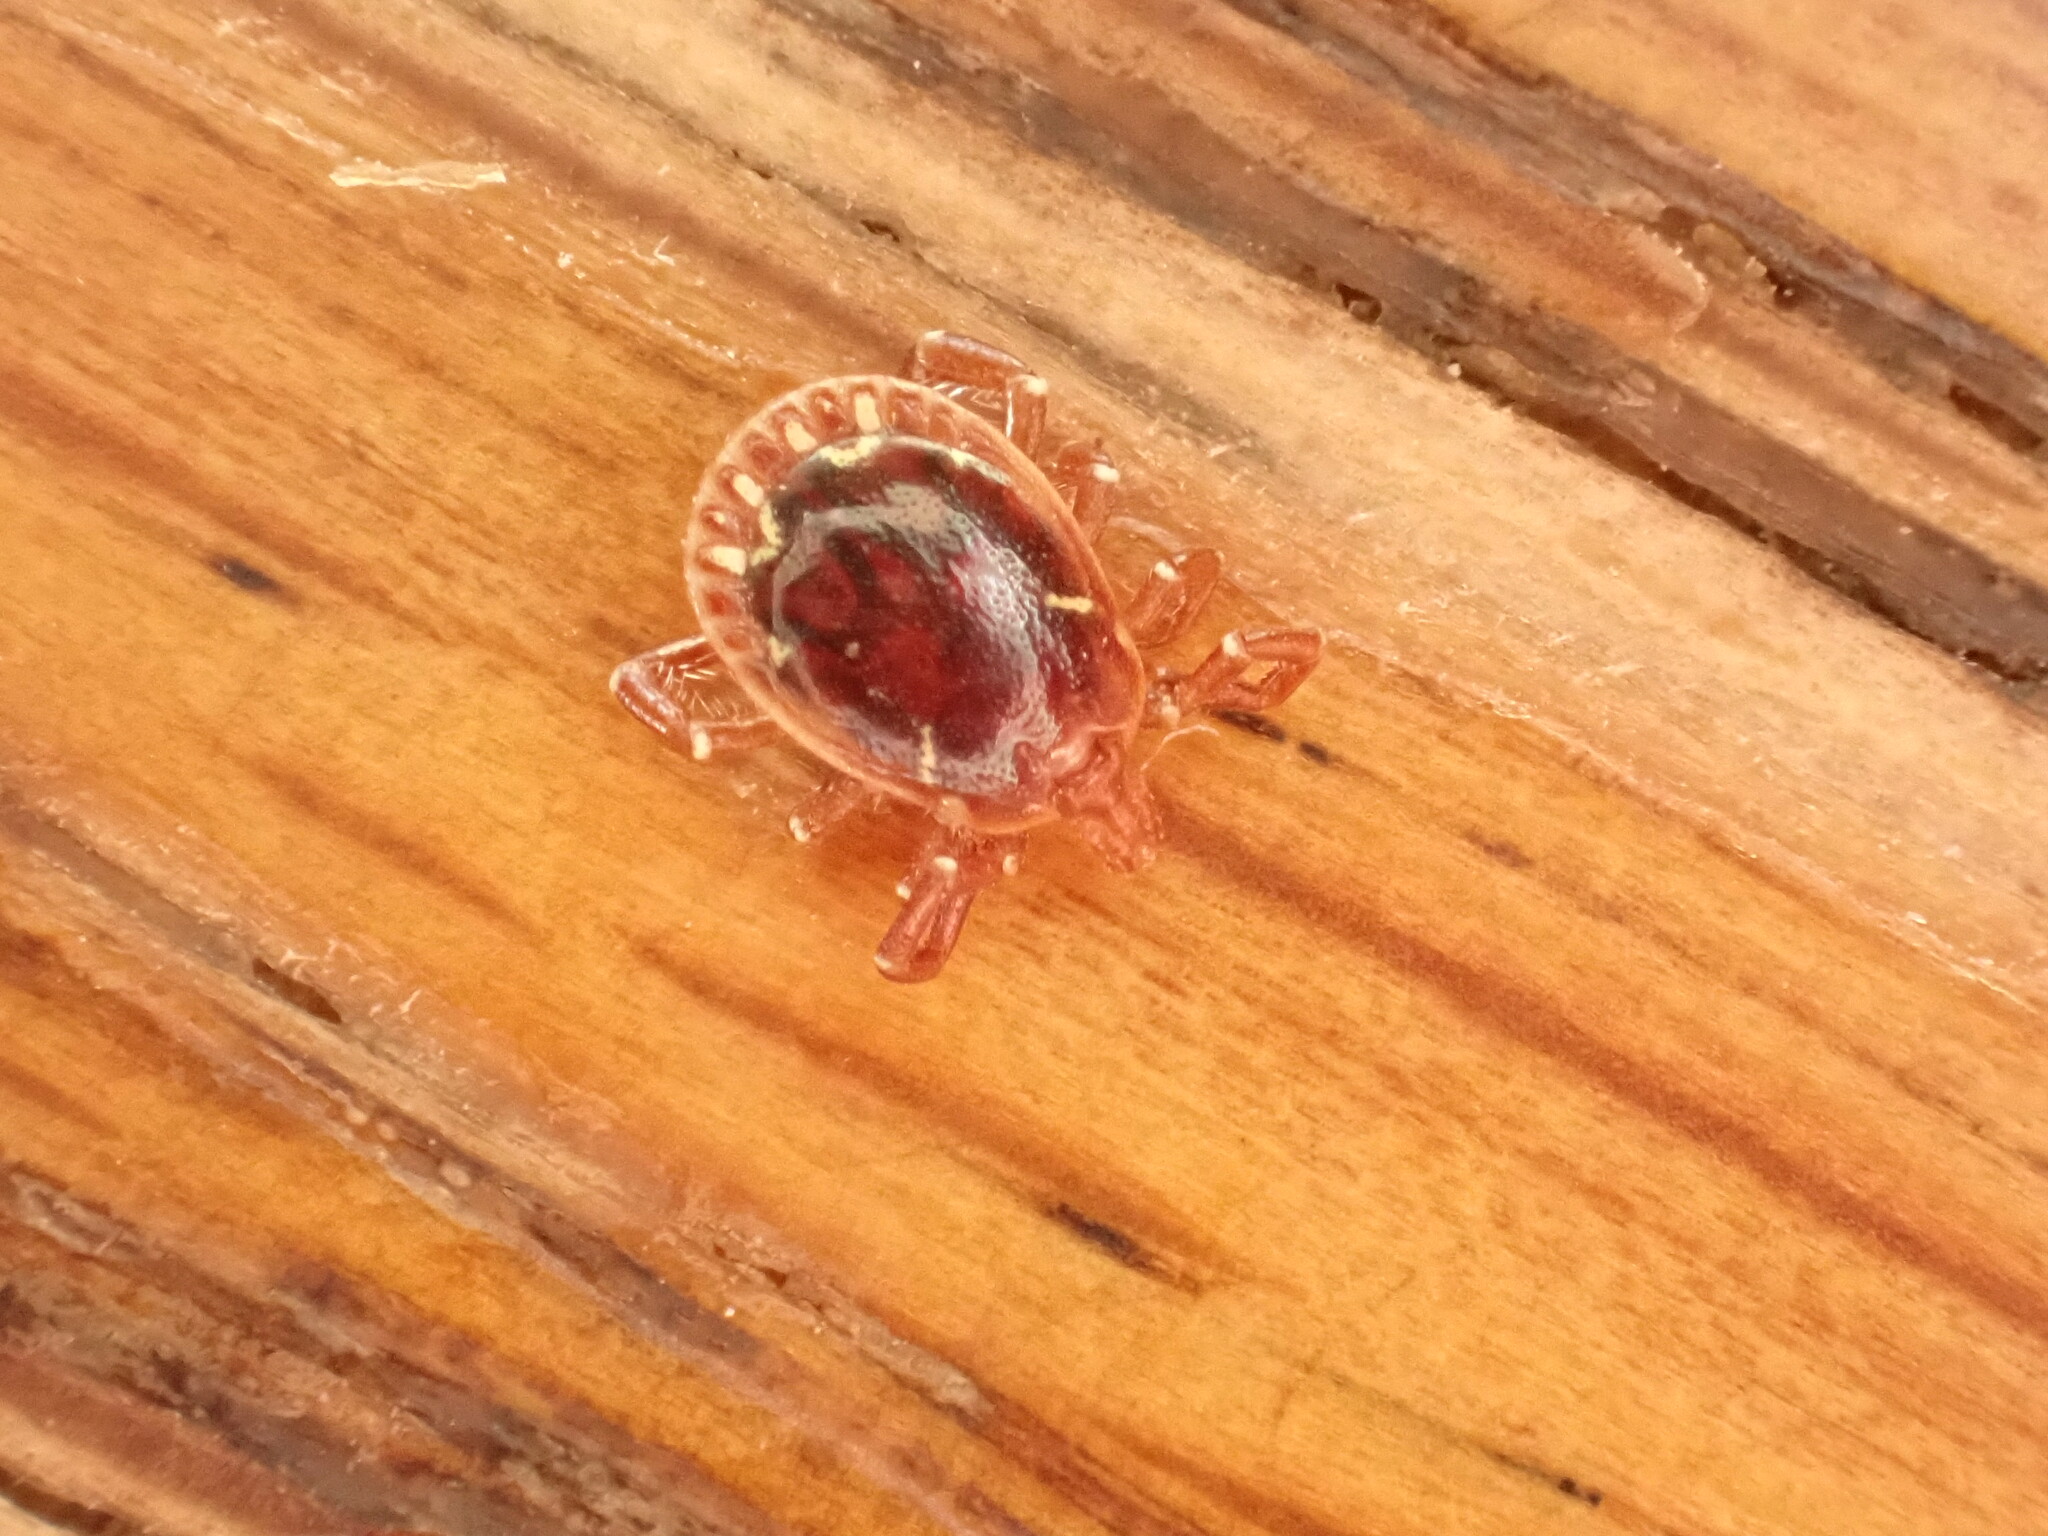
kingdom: Animalia
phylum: Arthropoda
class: Arachnida
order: Ixodida
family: Ixodidae
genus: Amblyomma
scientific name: Amblyomma americanum
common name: Lone star tick
